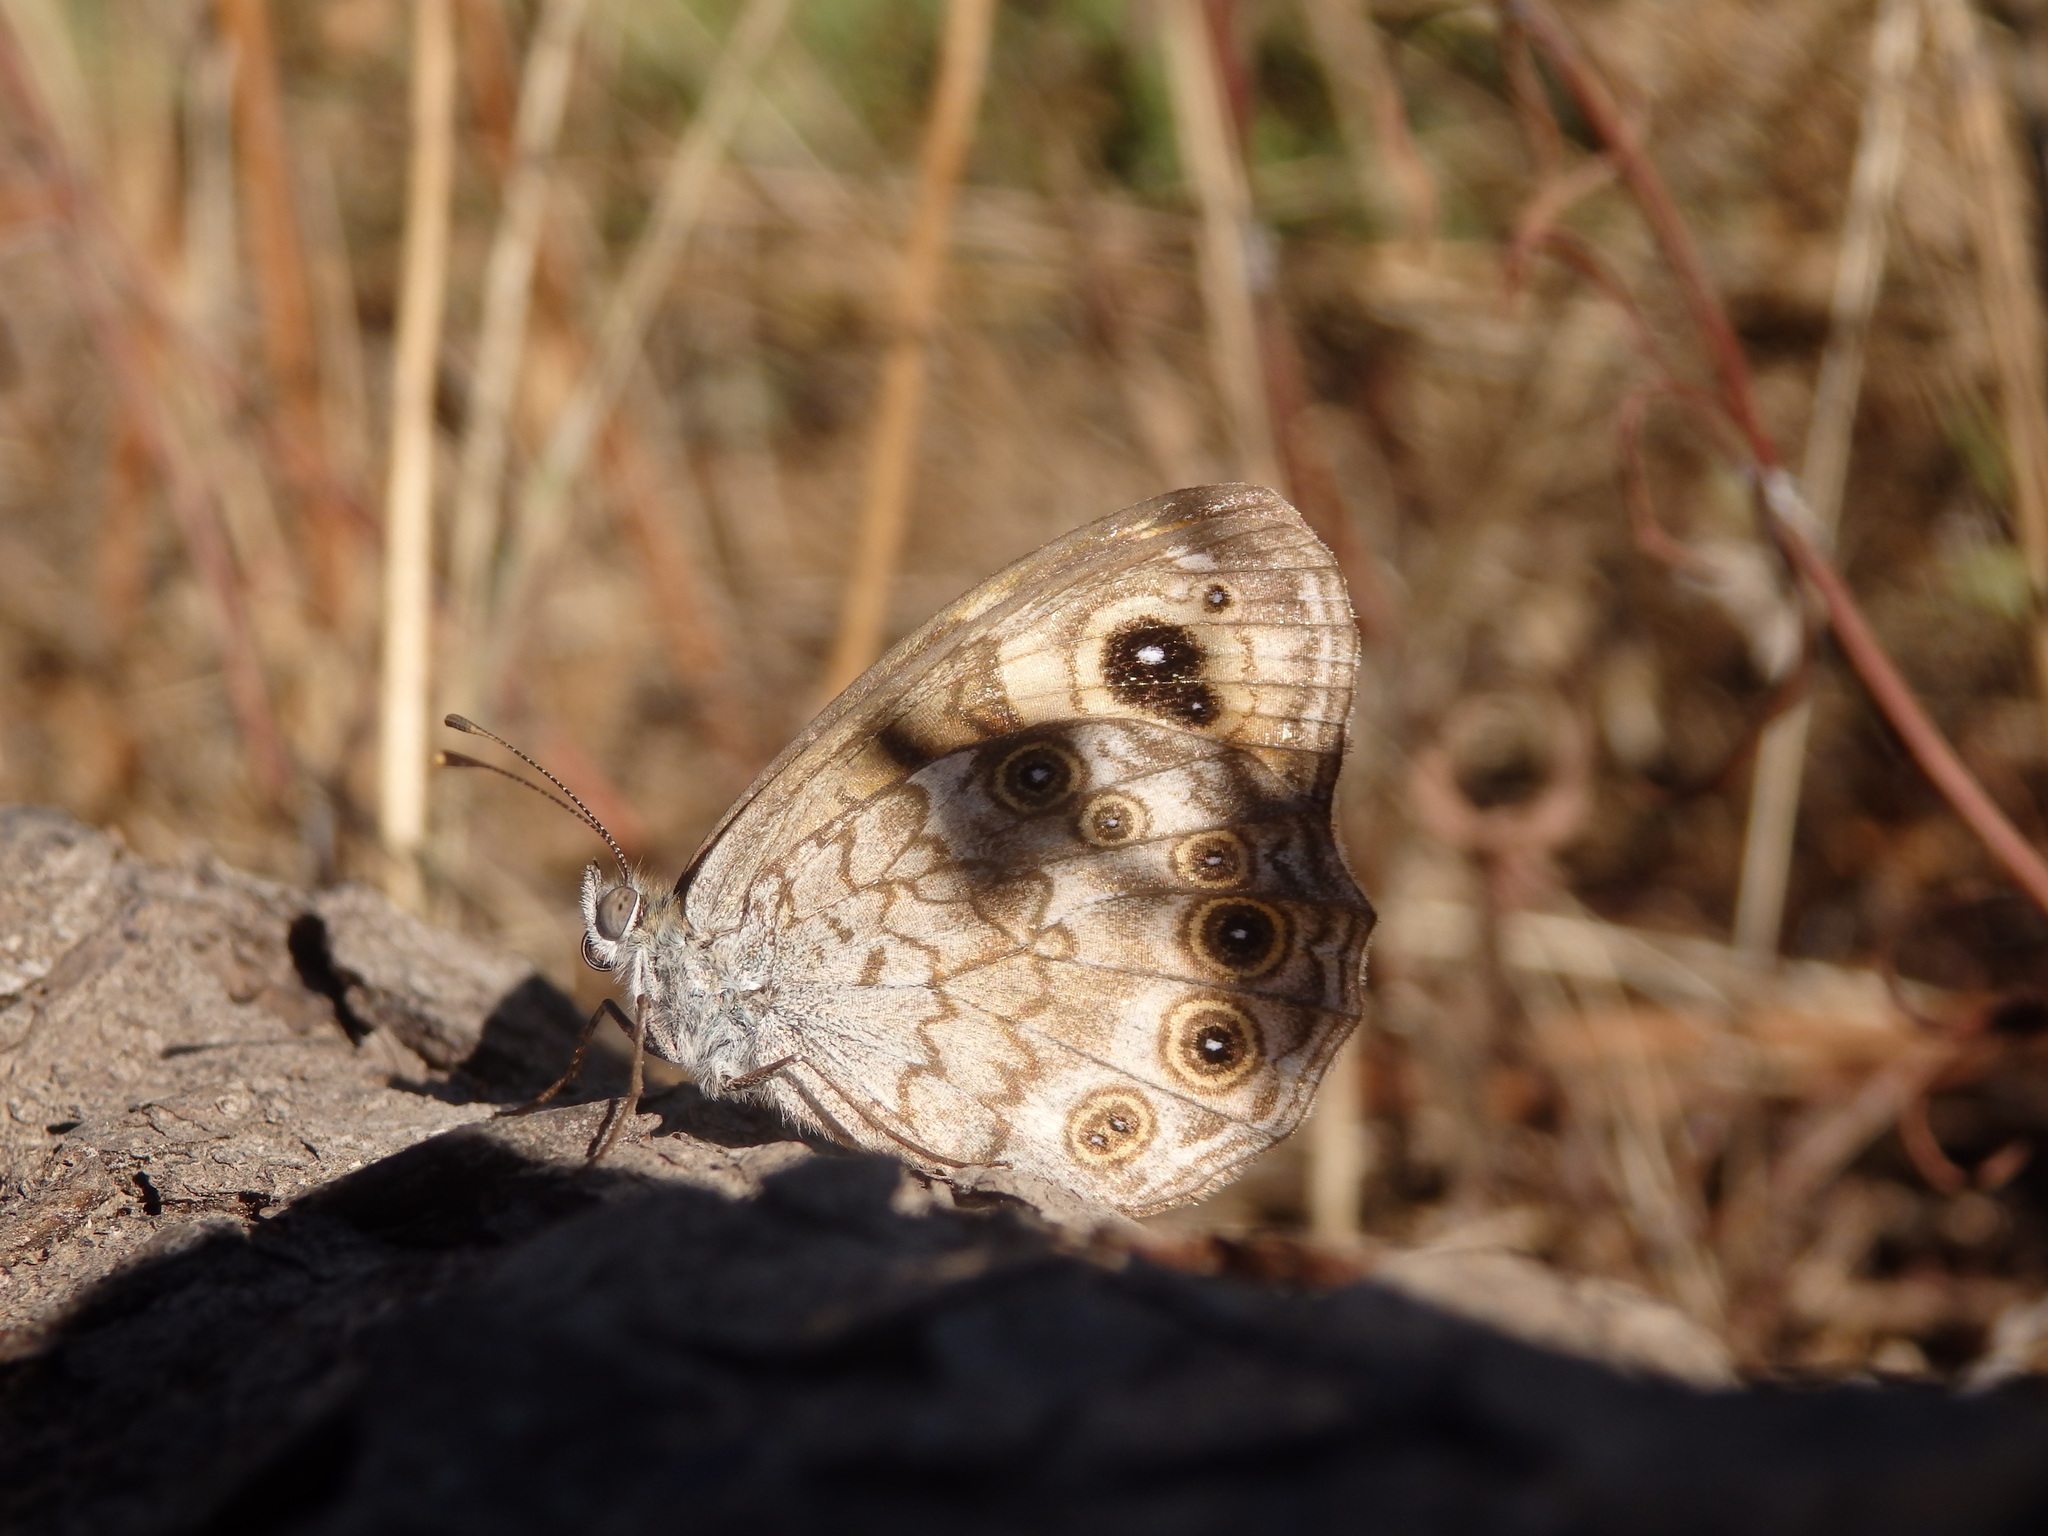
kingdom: Animalia
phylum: Arthropoda
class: Insecta
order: Lepidoptera
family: Nymphalidae
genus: Pararge
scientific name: Pararge Lasiommata maera
